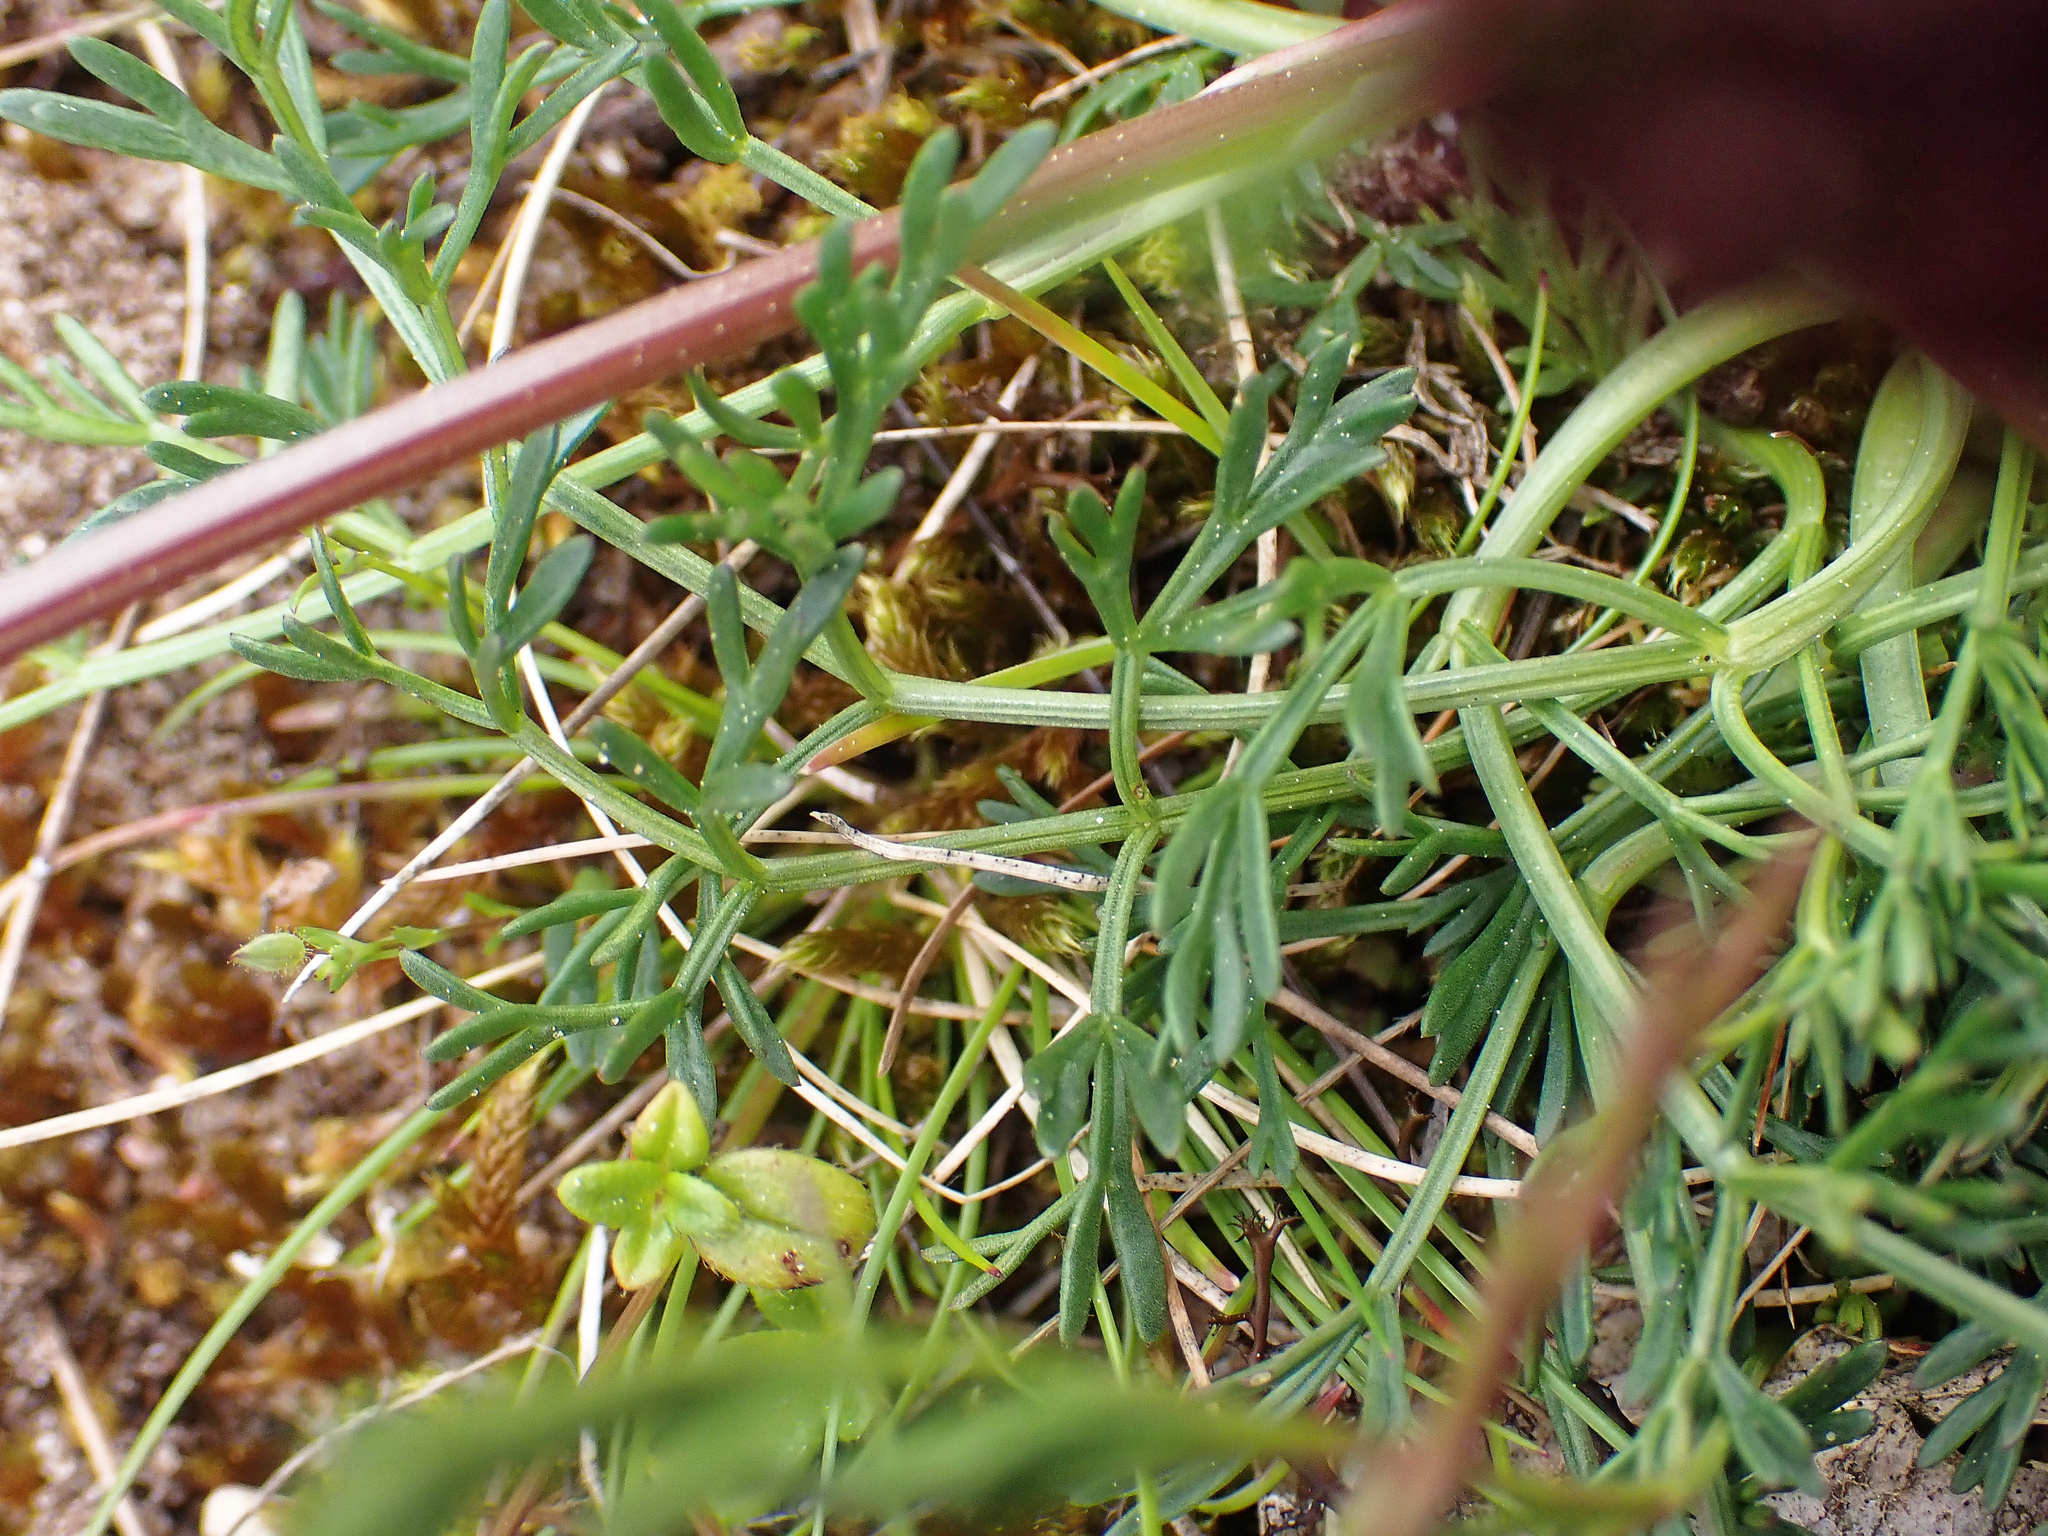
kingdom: Plantae
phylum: Tracheophyta
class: Magnoliopsida
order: Apiales
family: Apiaceae
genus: Trinia
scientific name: Trinia glauca
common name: Honewort
